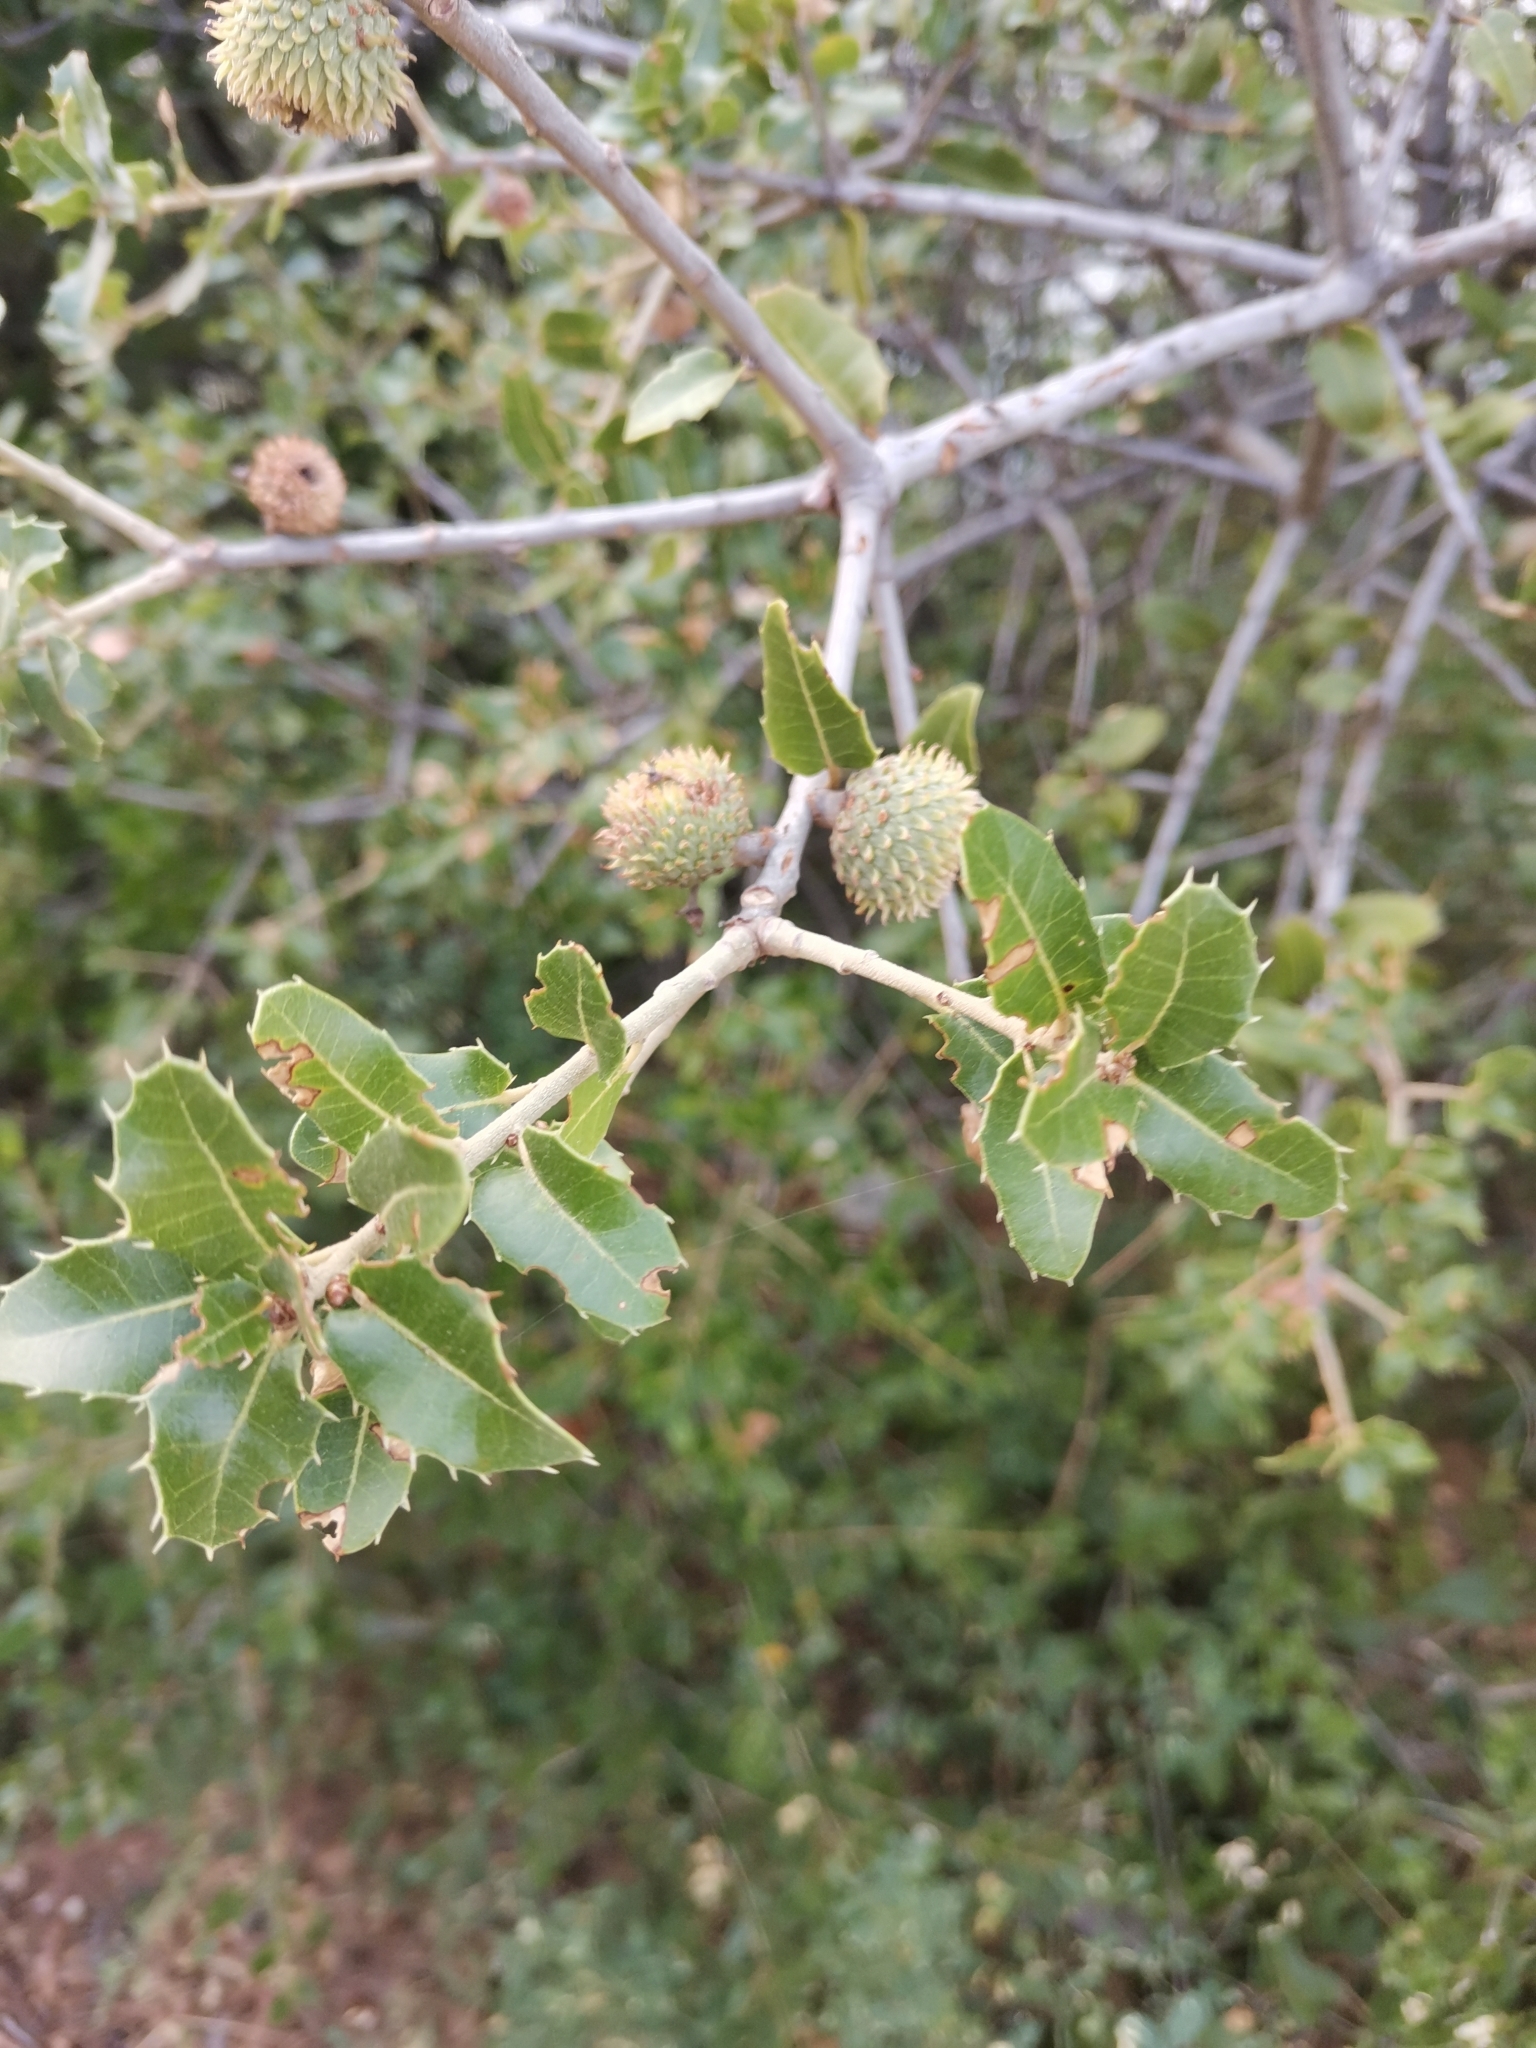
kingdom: Plantae
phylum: Tracheophyta
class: Magnoliopsida
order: Fagales
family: Fagaceae
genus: Quercus
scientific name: Quercus coccifera
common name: Kermes oak
